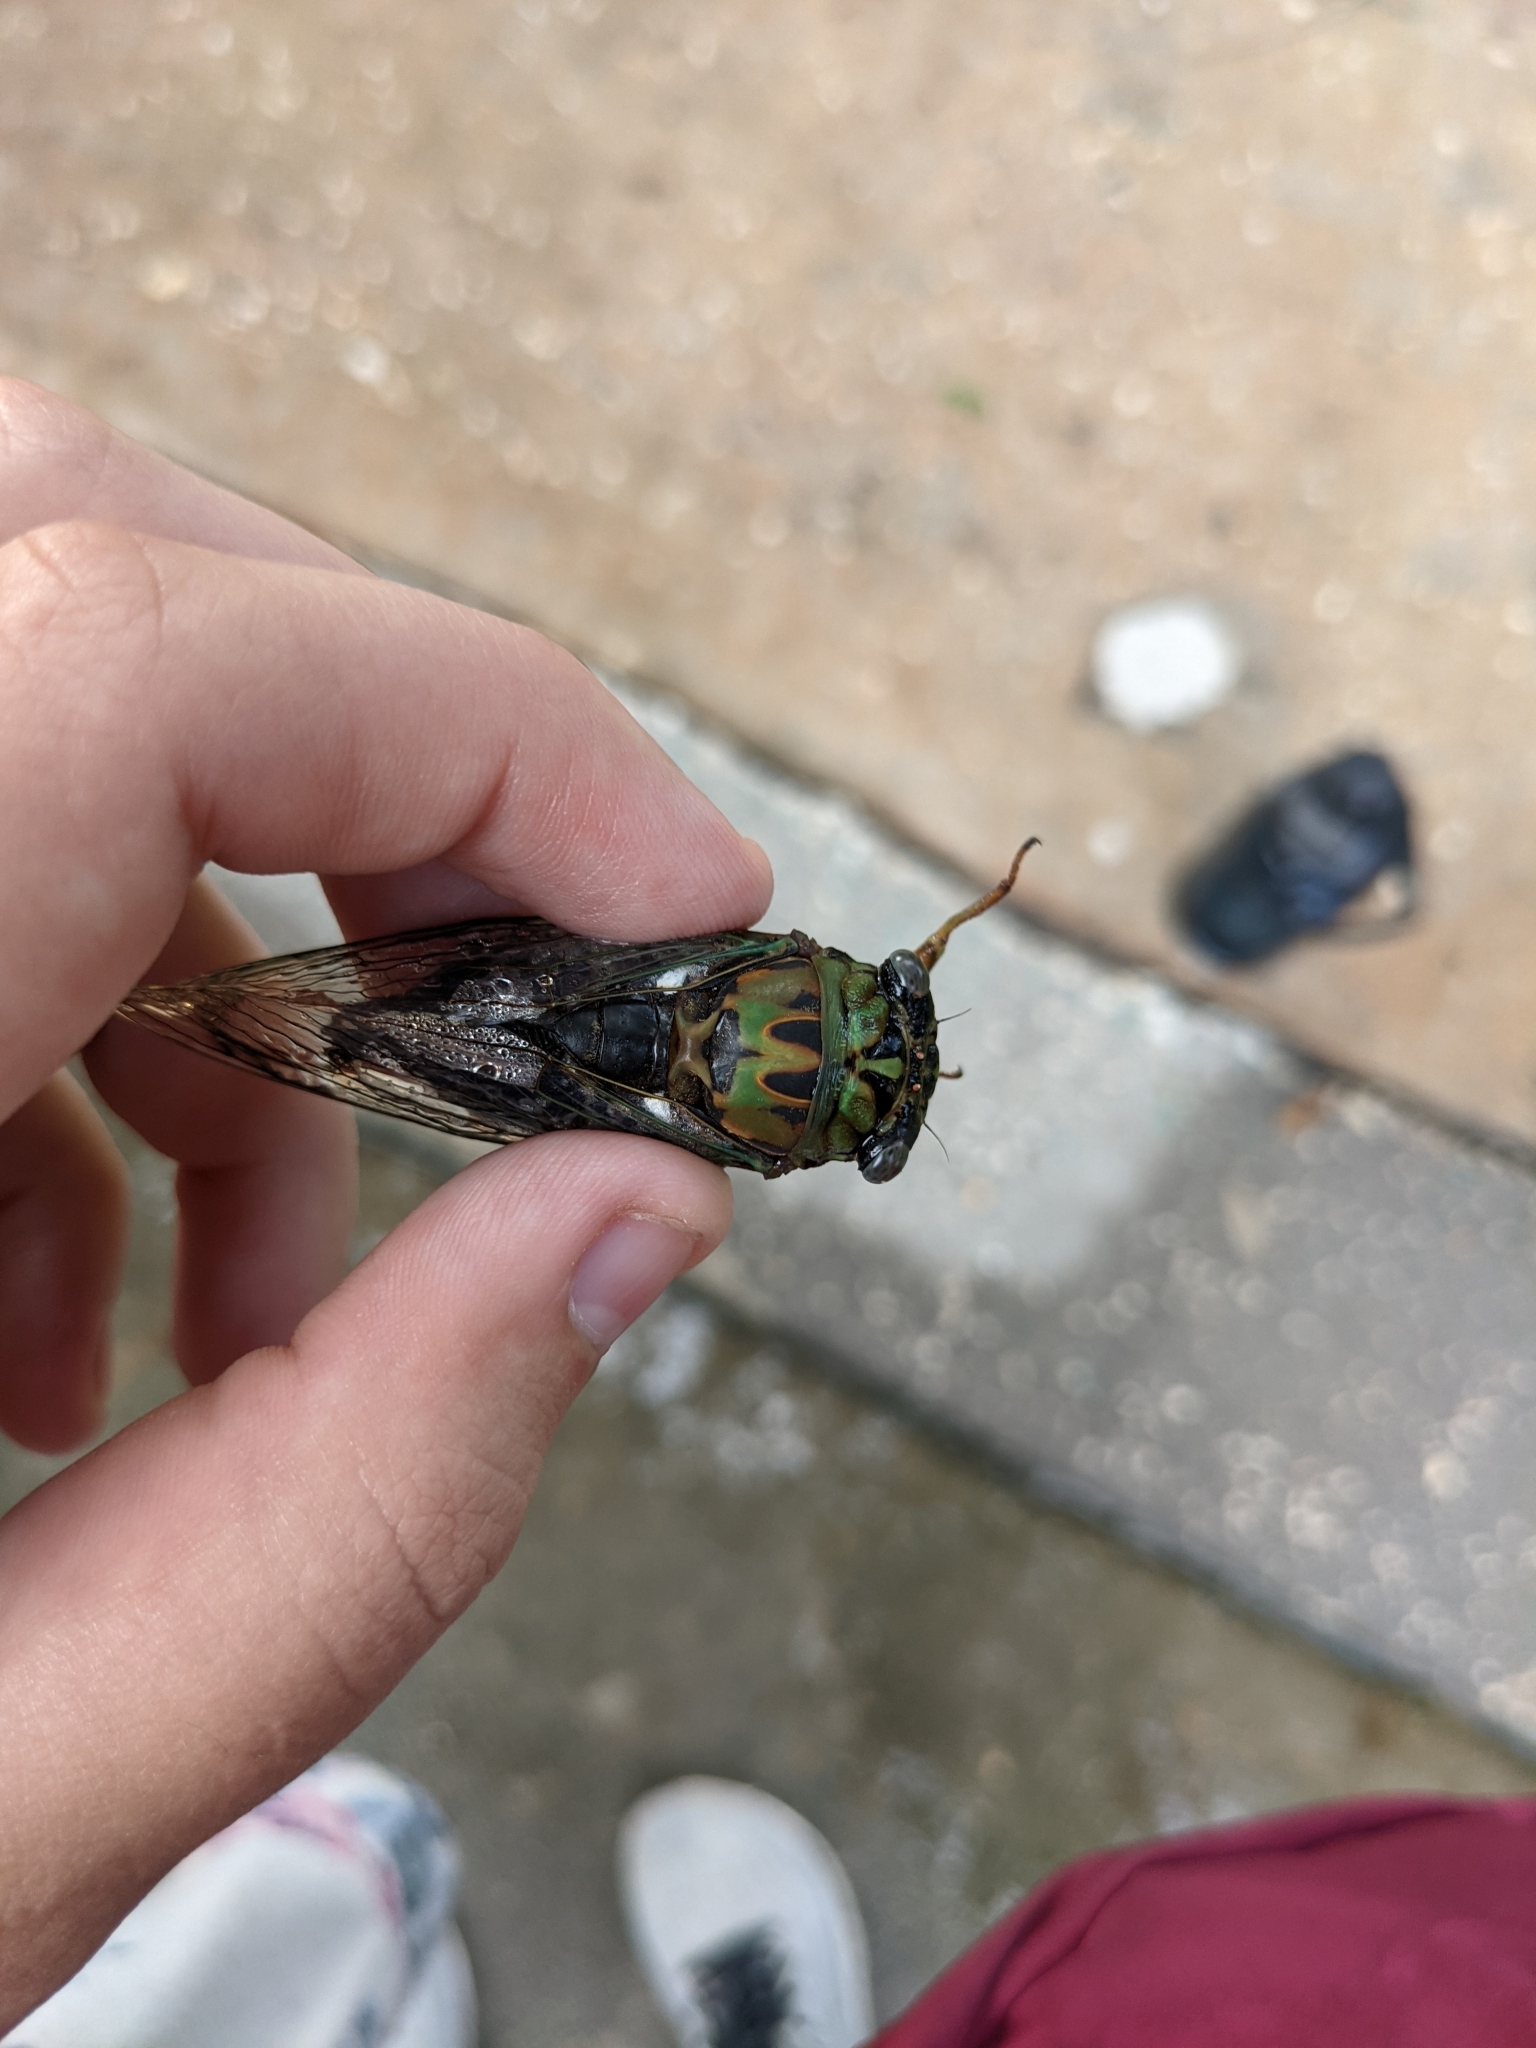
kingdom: Animalia
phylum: Arthropoda
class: Insecta
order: Hemiptera
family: Cicadidae
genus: Neotibicen
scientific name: Neotibicen pruinosus
